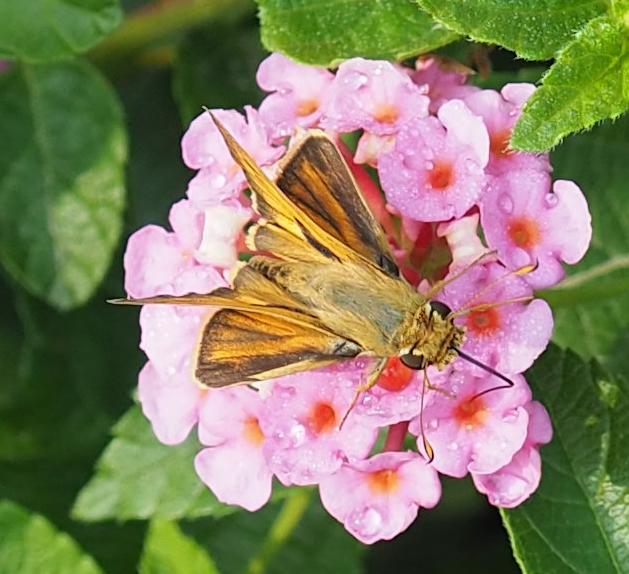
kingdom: Animalia
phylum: Arthropoda
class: Insecta
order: Lepidoptera
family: Hesperiidae
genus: Atalopedes
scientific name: Atalopedes
